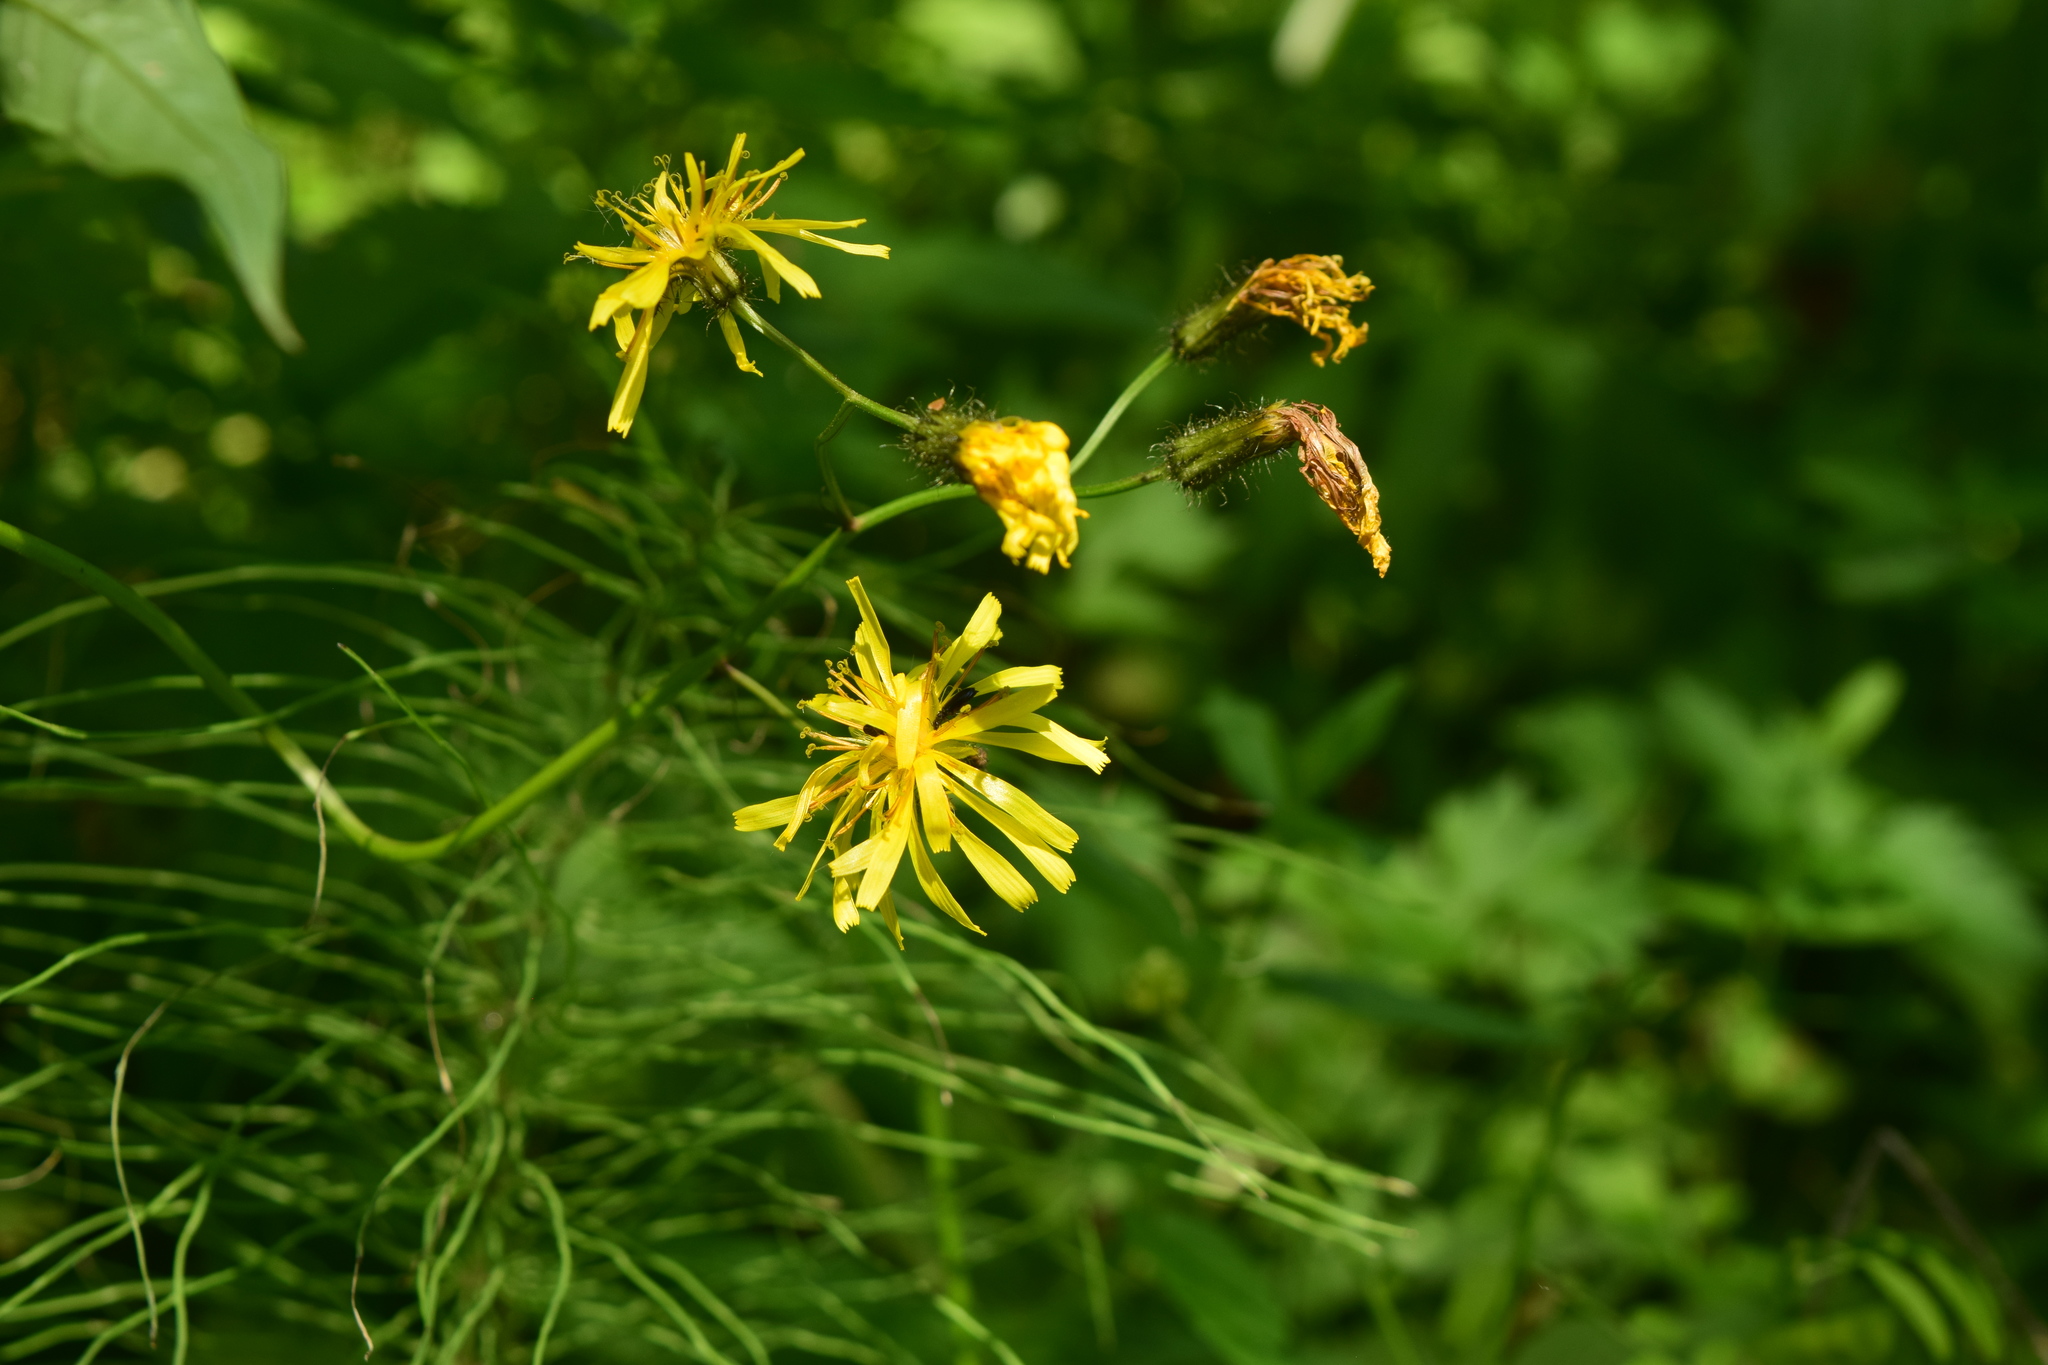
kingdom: Plantae
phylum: Tracheophyta
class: Magnoliopsida
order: Asterales
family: Asteraceae
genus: Crepis
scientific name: Crepis paludosa
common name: Marsh hawk's-beard
